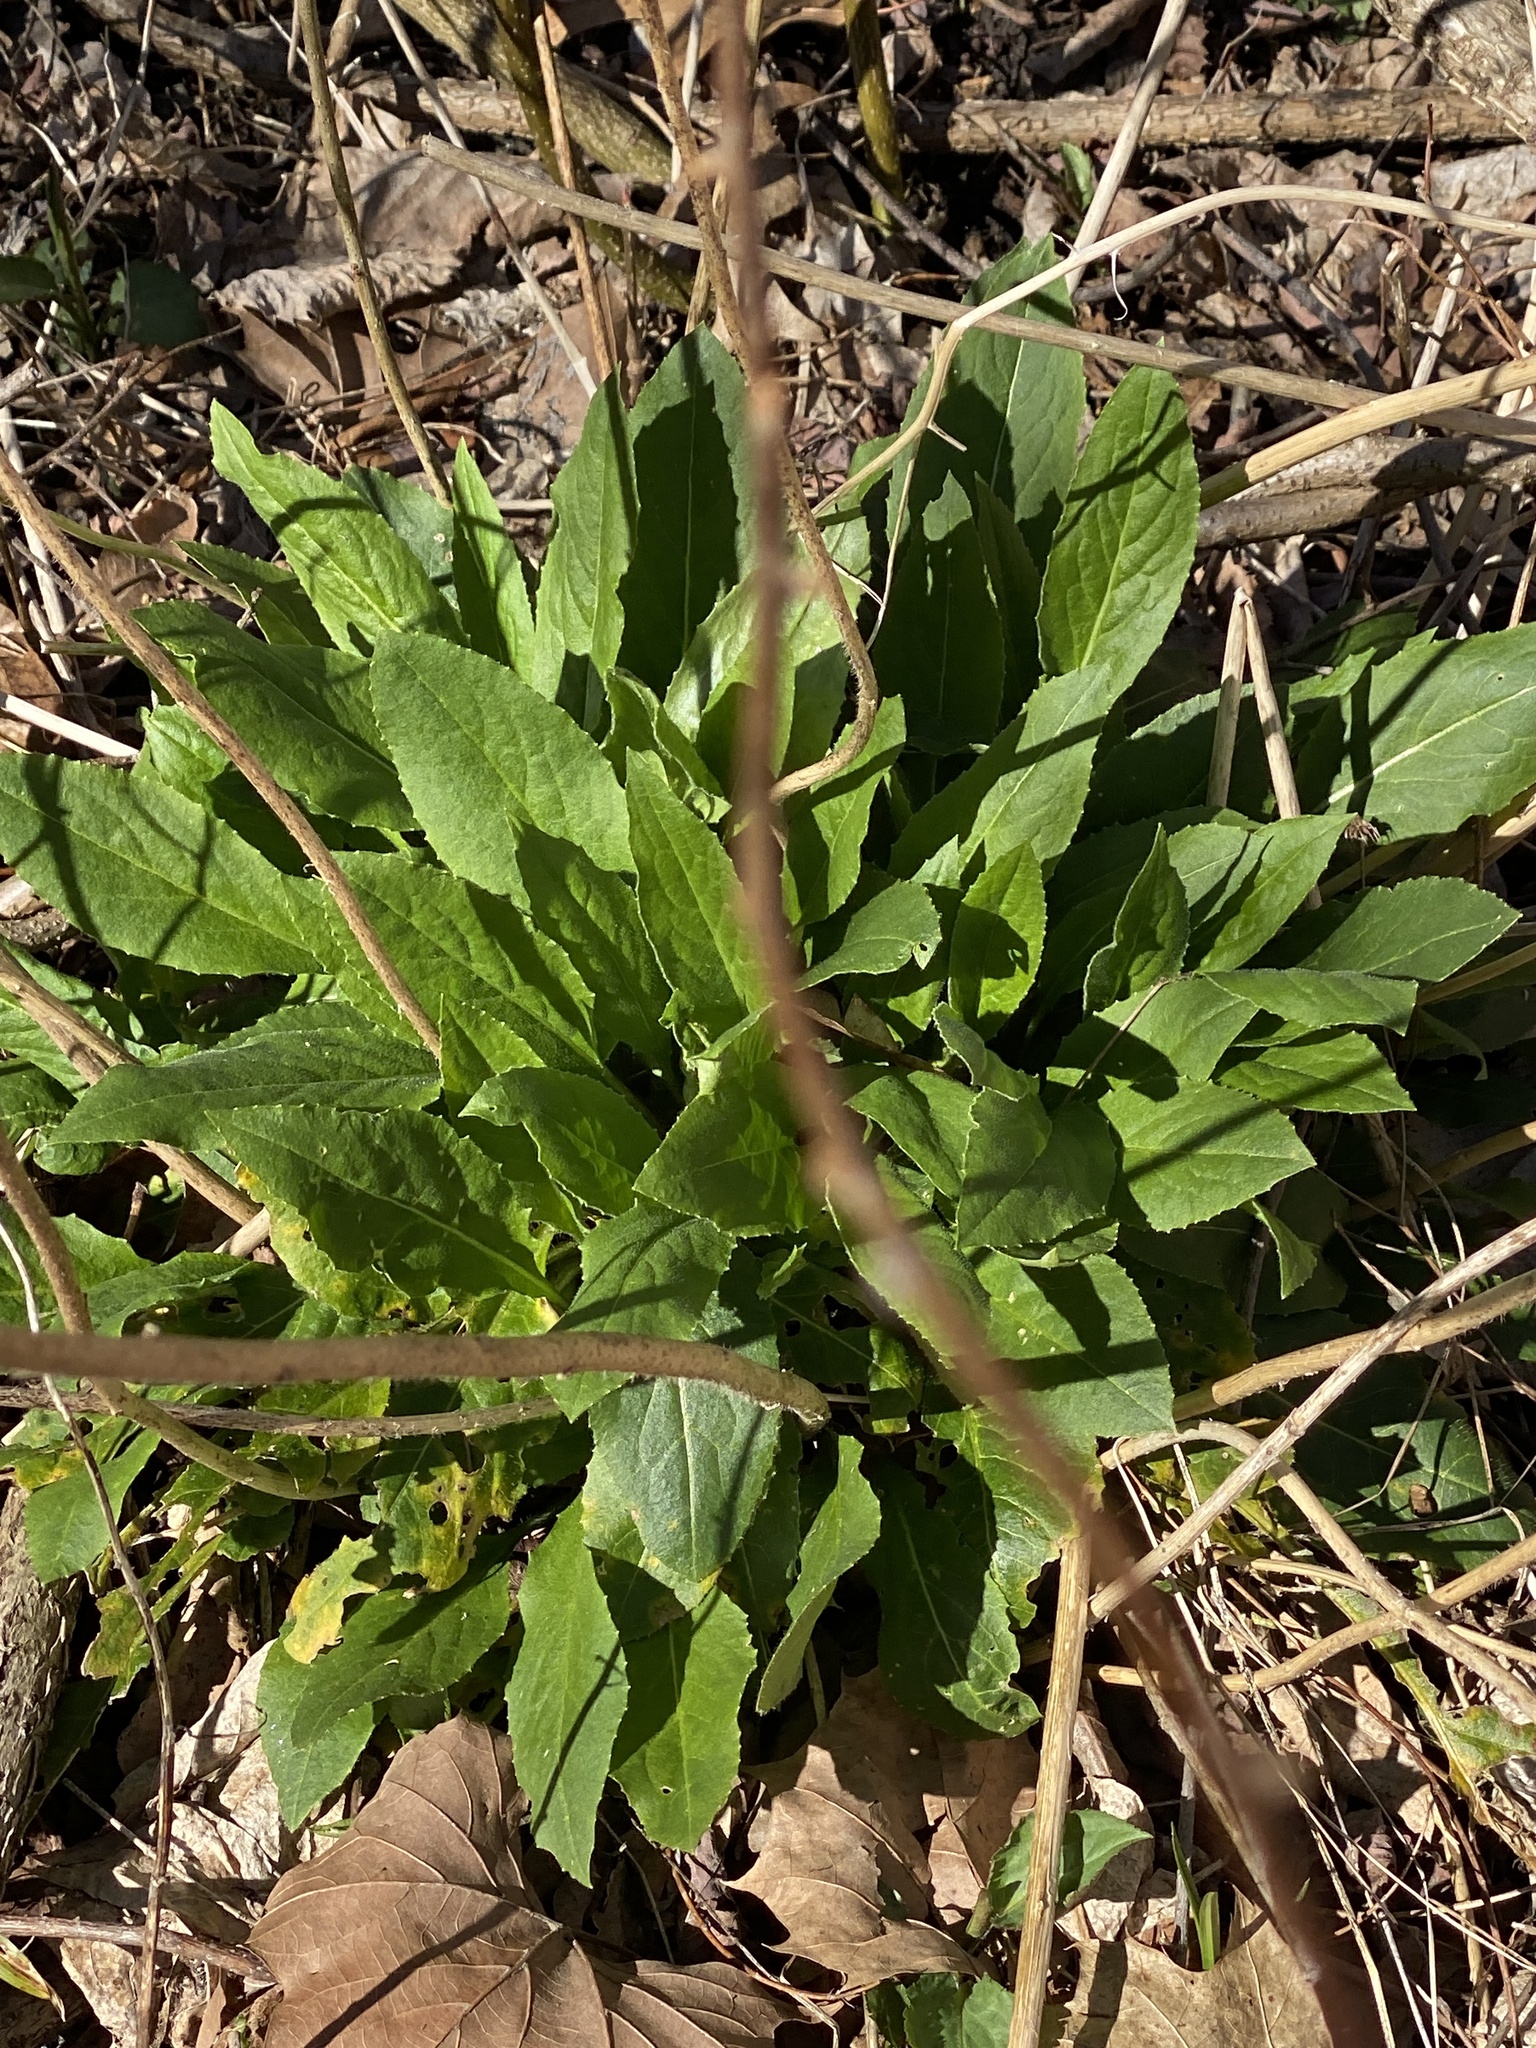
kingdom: Plantae
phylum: Tracheophyta
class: Magnoliopsida
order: Brassicales
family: Brassicaceae
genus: Hesperis
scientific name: Hesperis matronalis
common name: Dame's-violet
